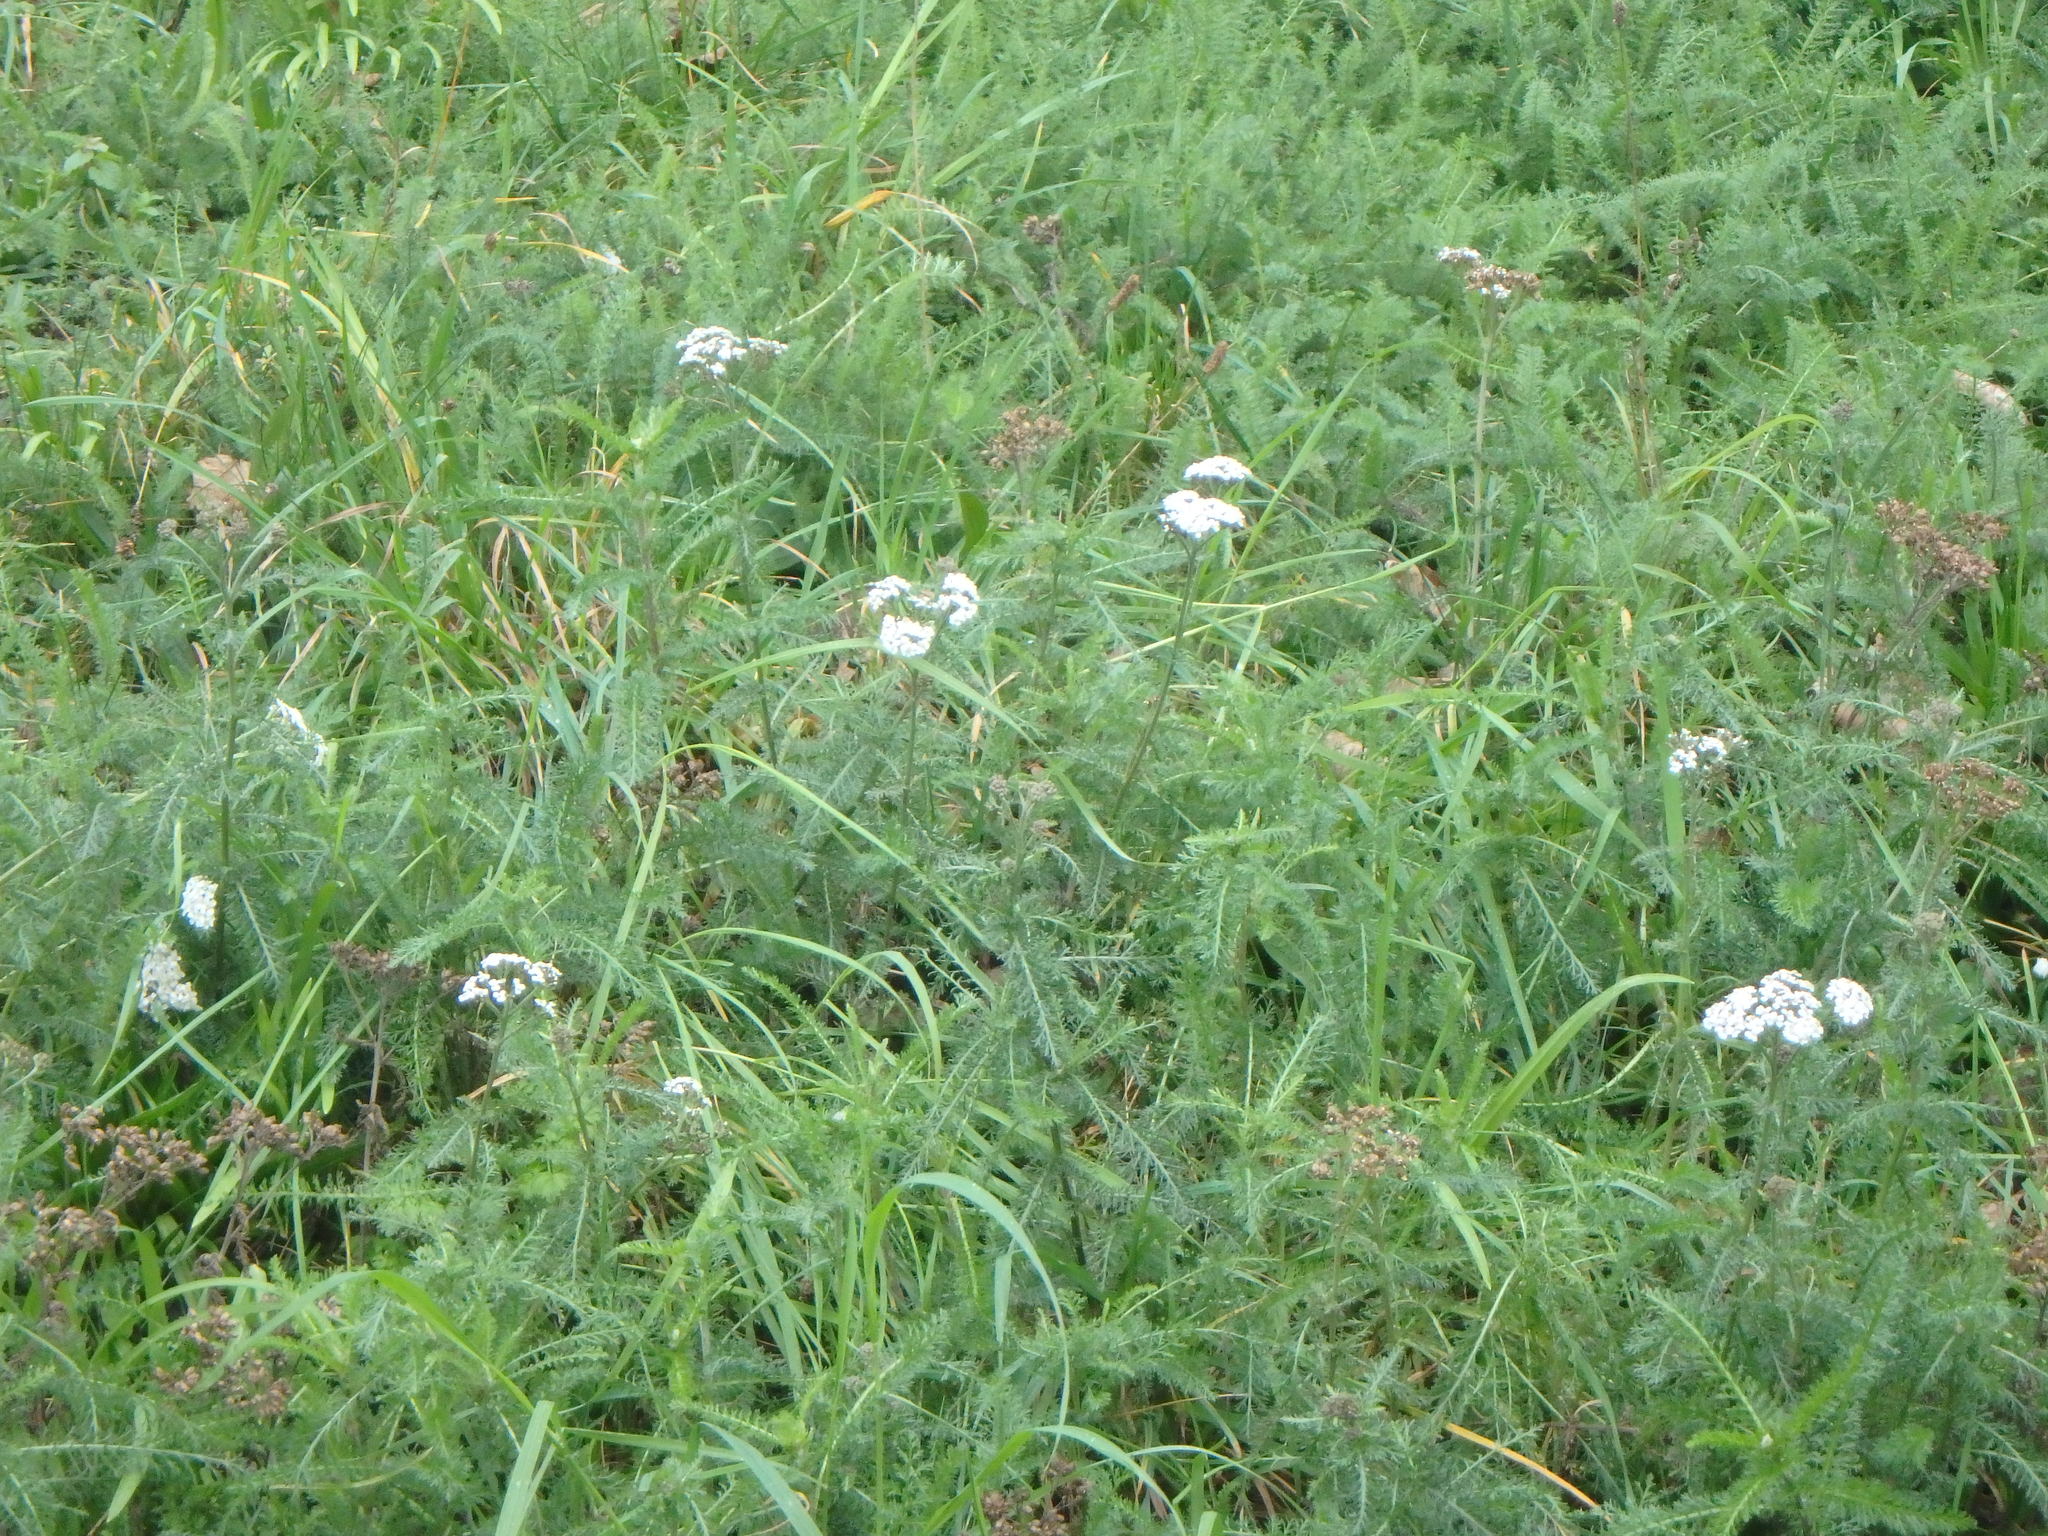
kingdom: Plantae
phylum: Tracheophyta
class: Magnoliopsida
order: Asterales
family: Asteraceae
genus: Achillea
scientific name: Achillea millefolium
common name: Yarrow
